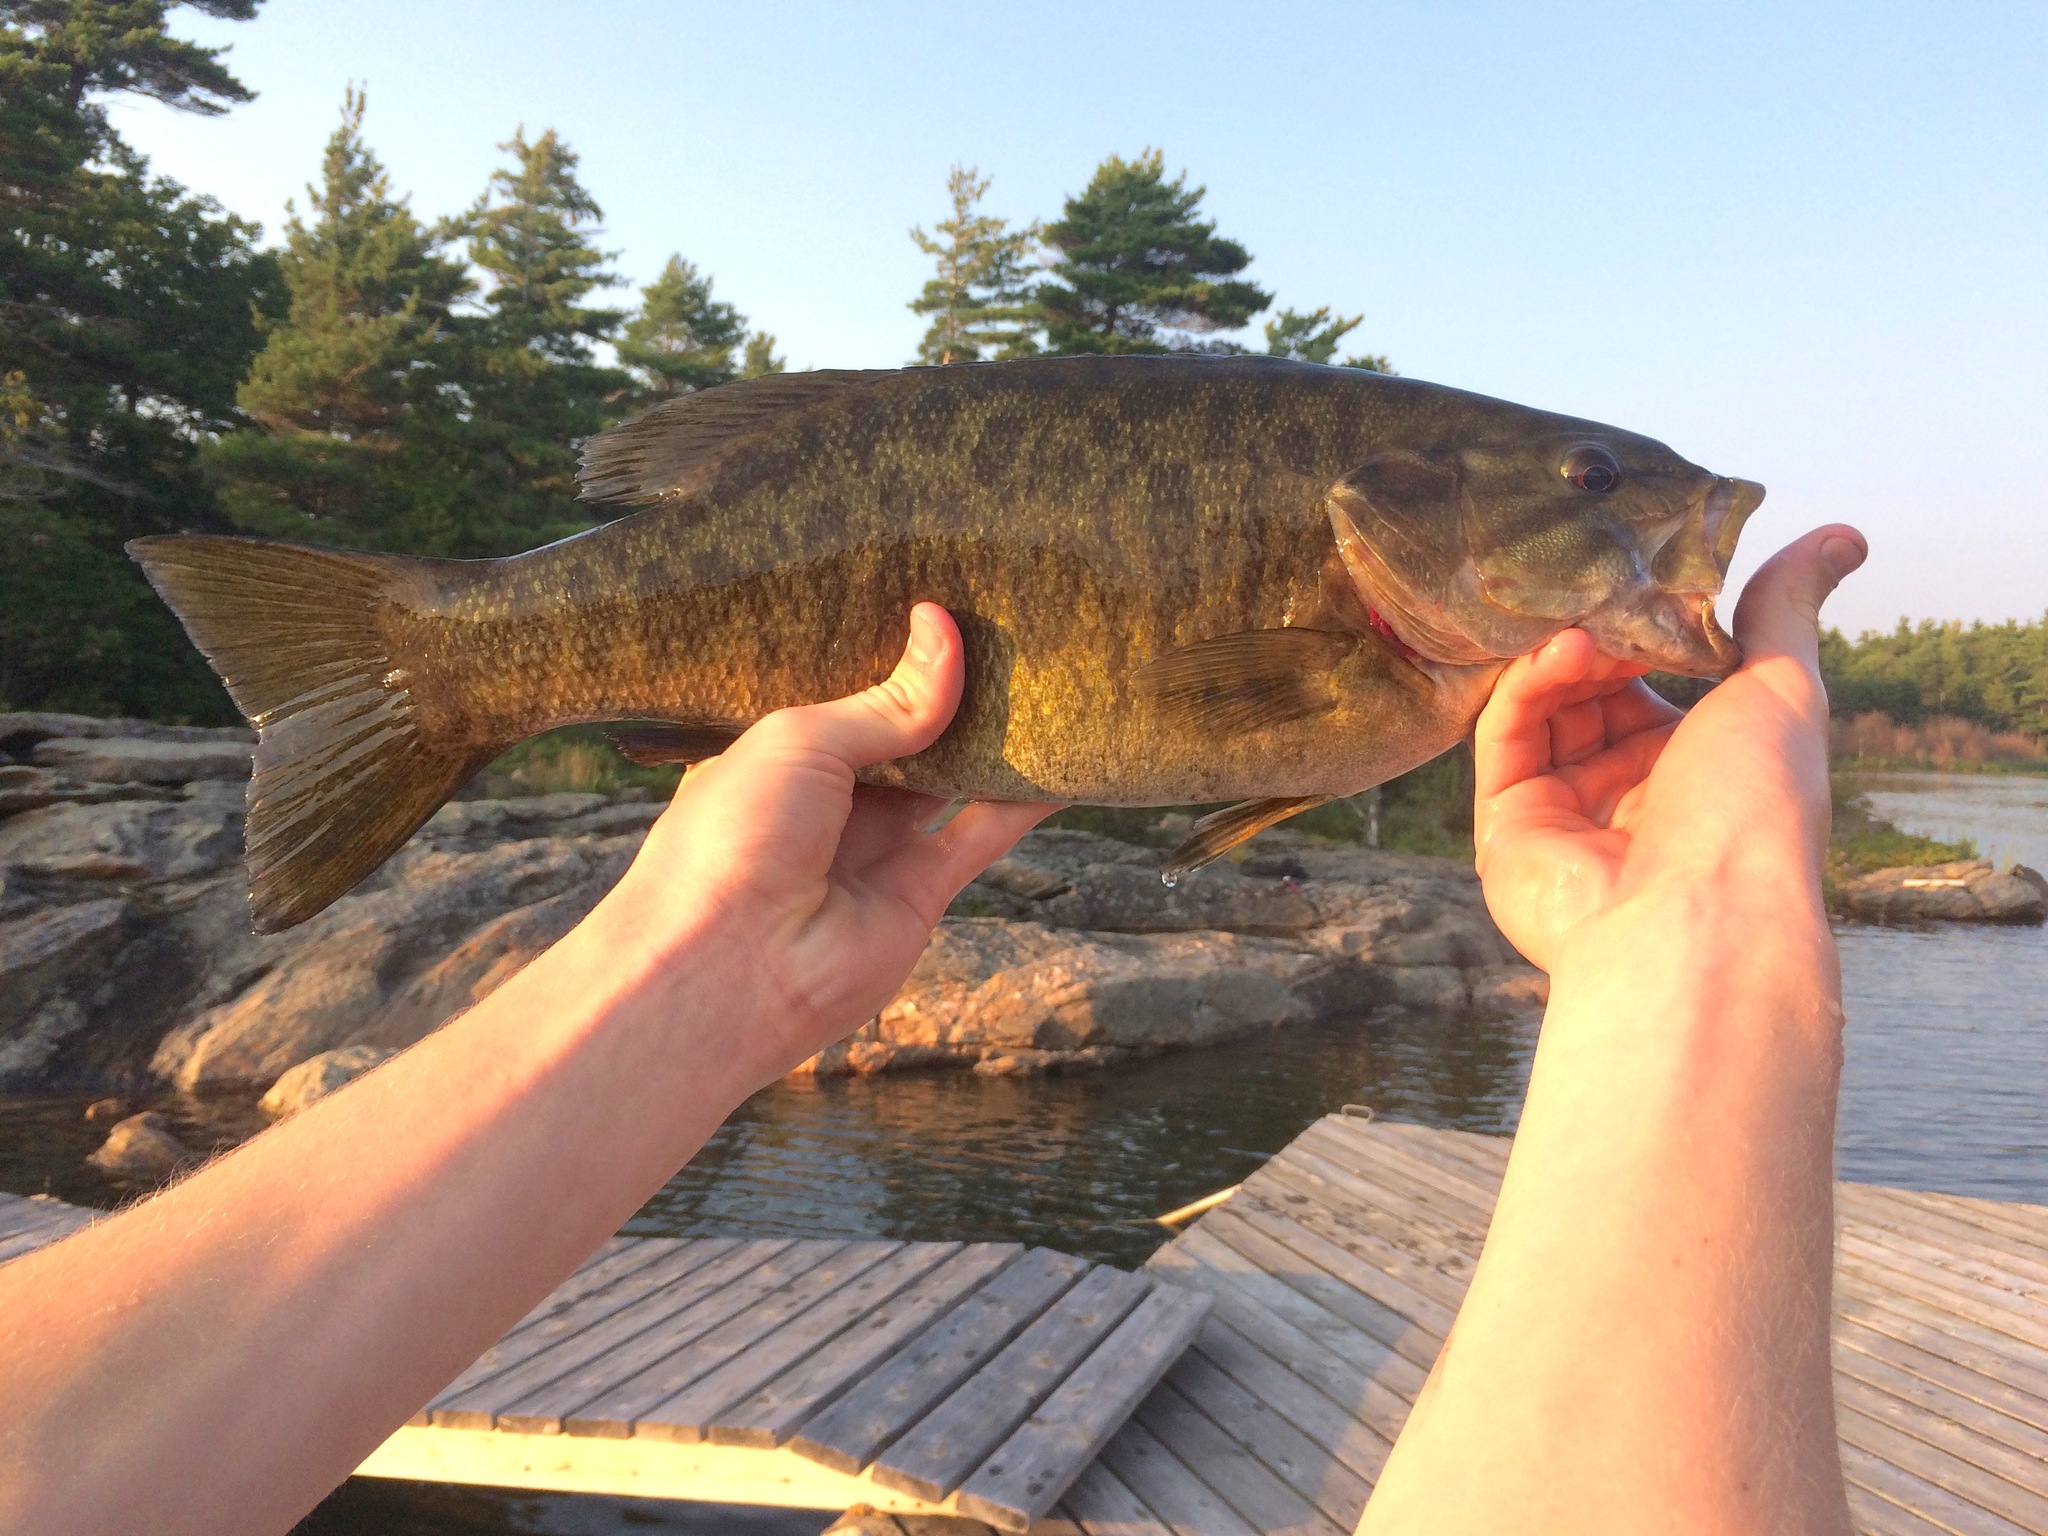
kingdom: Animalia
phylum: Chordata
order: Perciformes
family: Centrarchidae
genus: Micropterus
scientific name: Micropterus dolomieu
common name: Smallmouth bass
